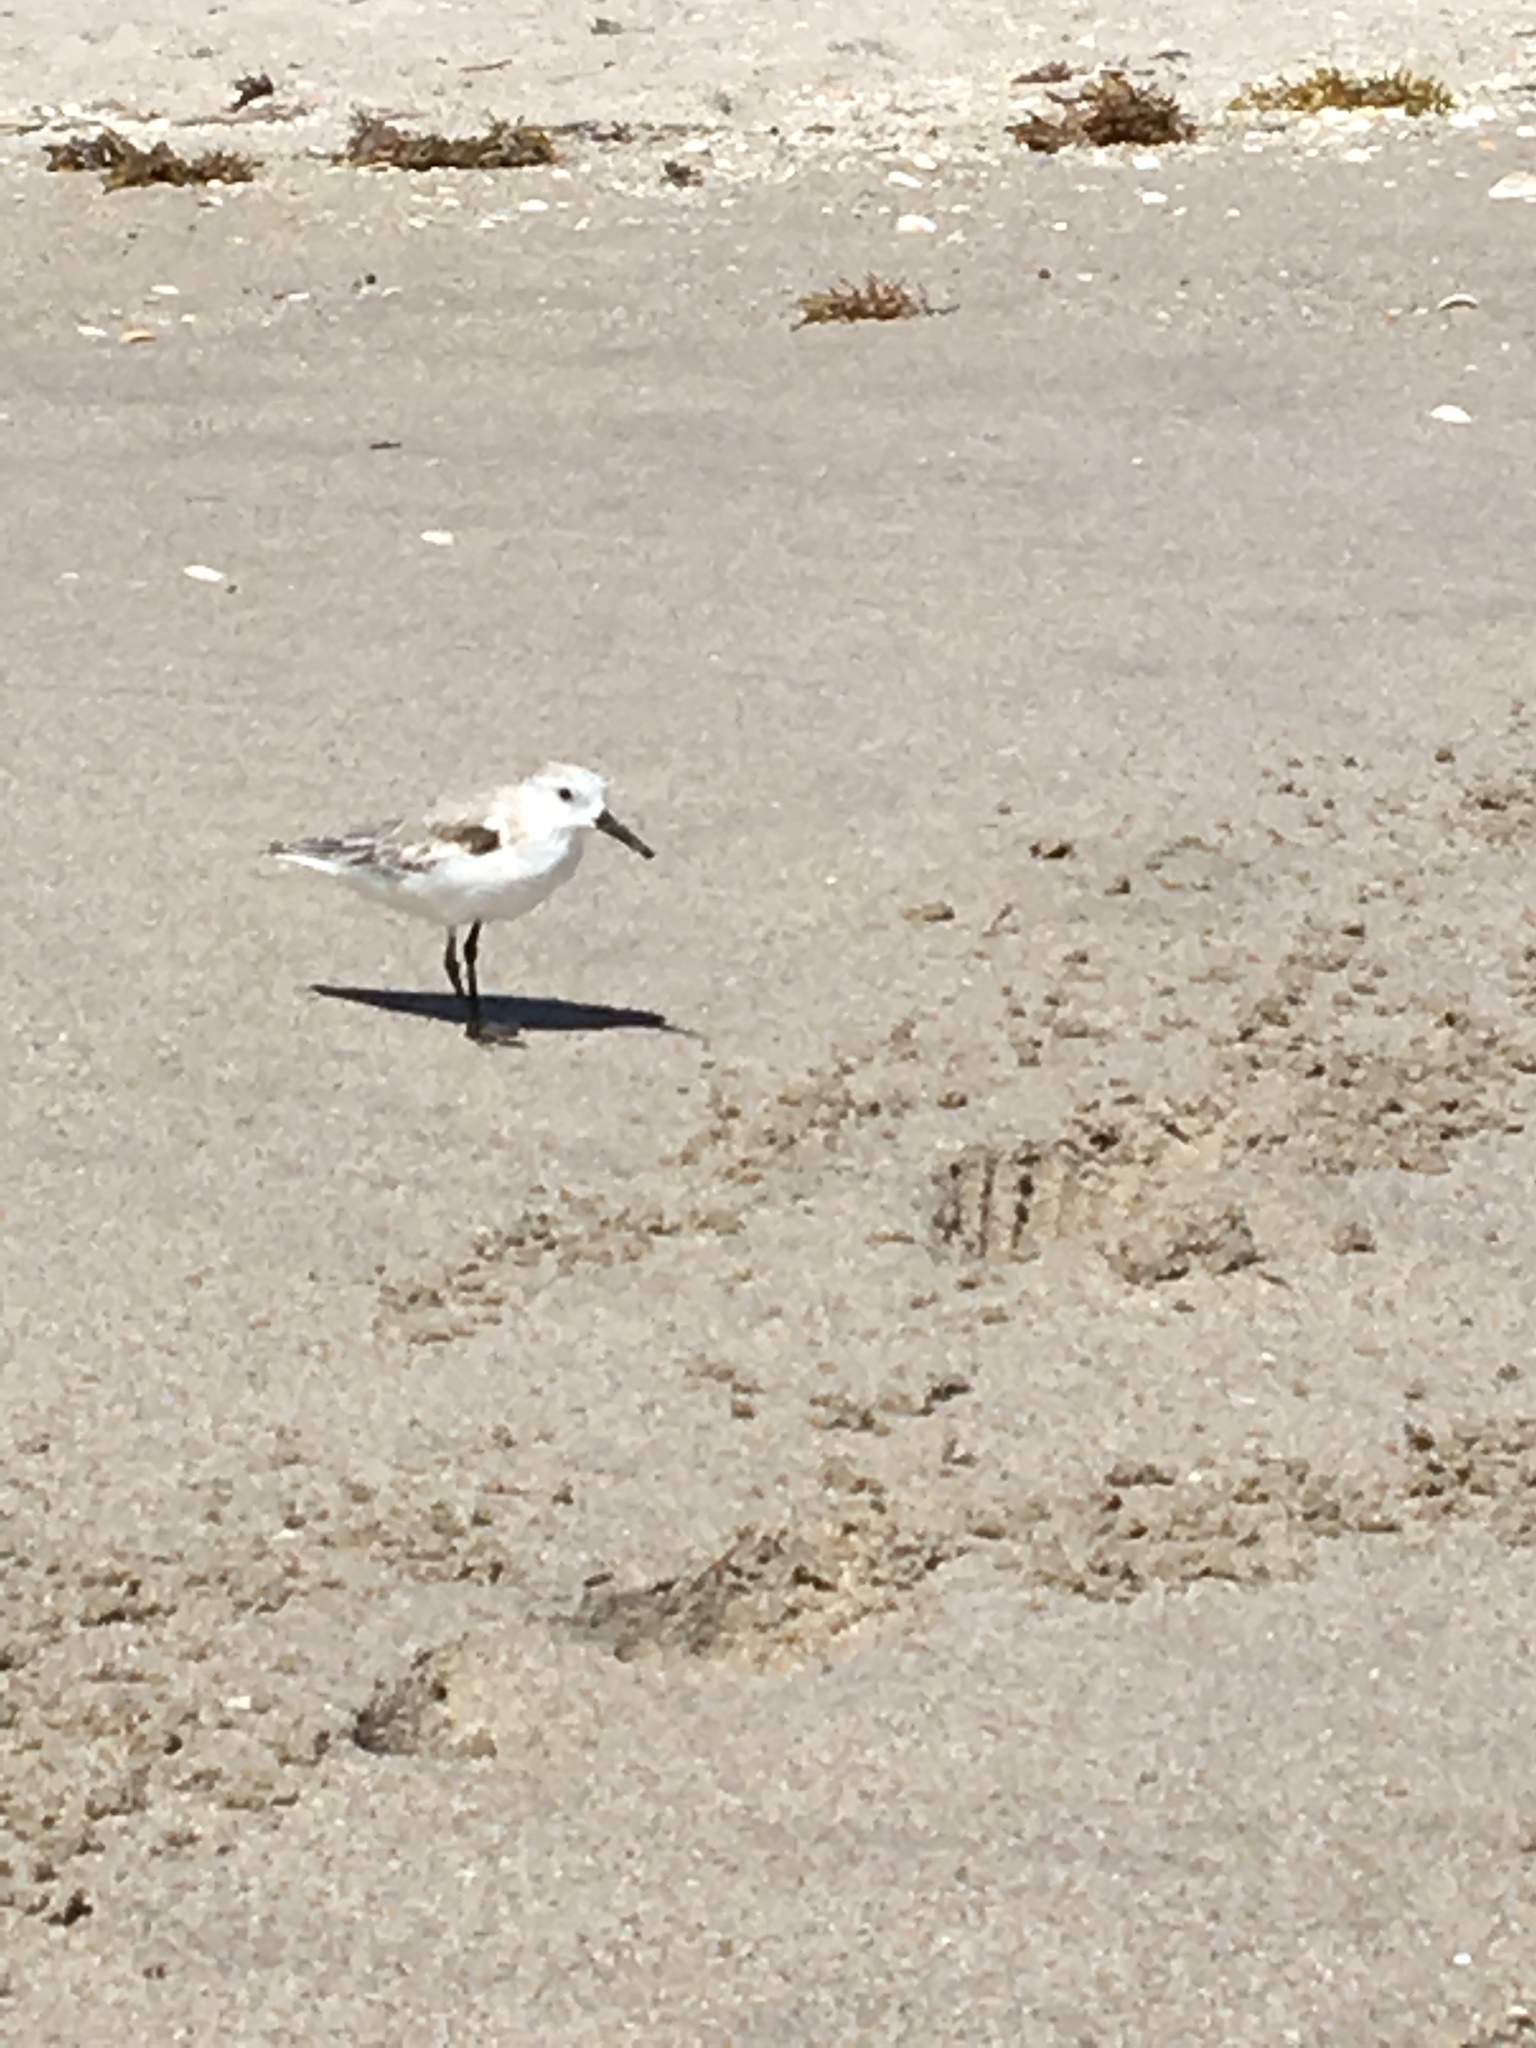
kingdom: Animalia
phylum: Chordata
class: Aves
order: Charadriiformes
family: Scolopacidae
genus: Calidris
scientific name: Calidris alba
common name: Sanderling
